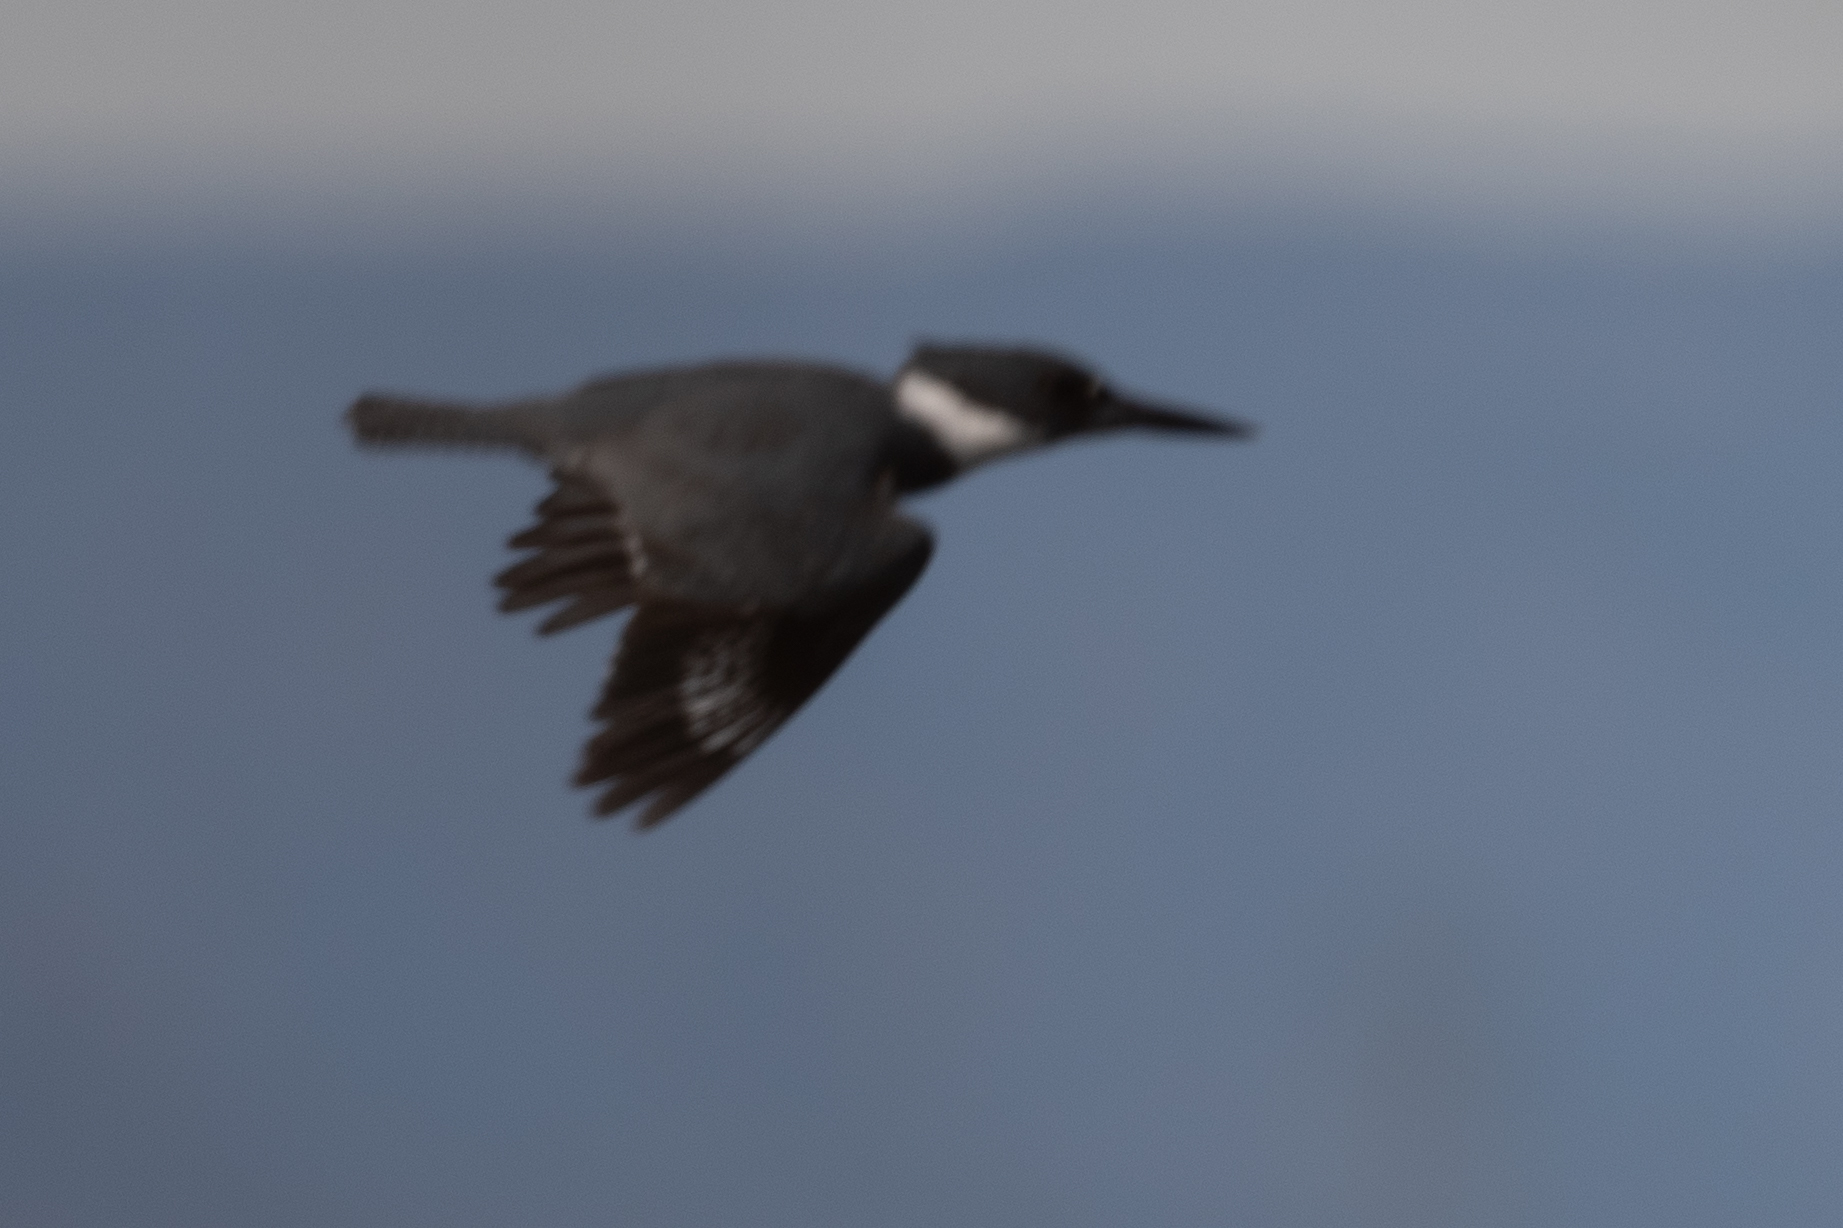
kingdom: Animalia
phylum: Chordata
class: Aves
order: Coraciiformes
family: Alcedinidae
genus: Megaceryle
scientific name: Megaceryle alcyon
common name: Belted kingfisher
